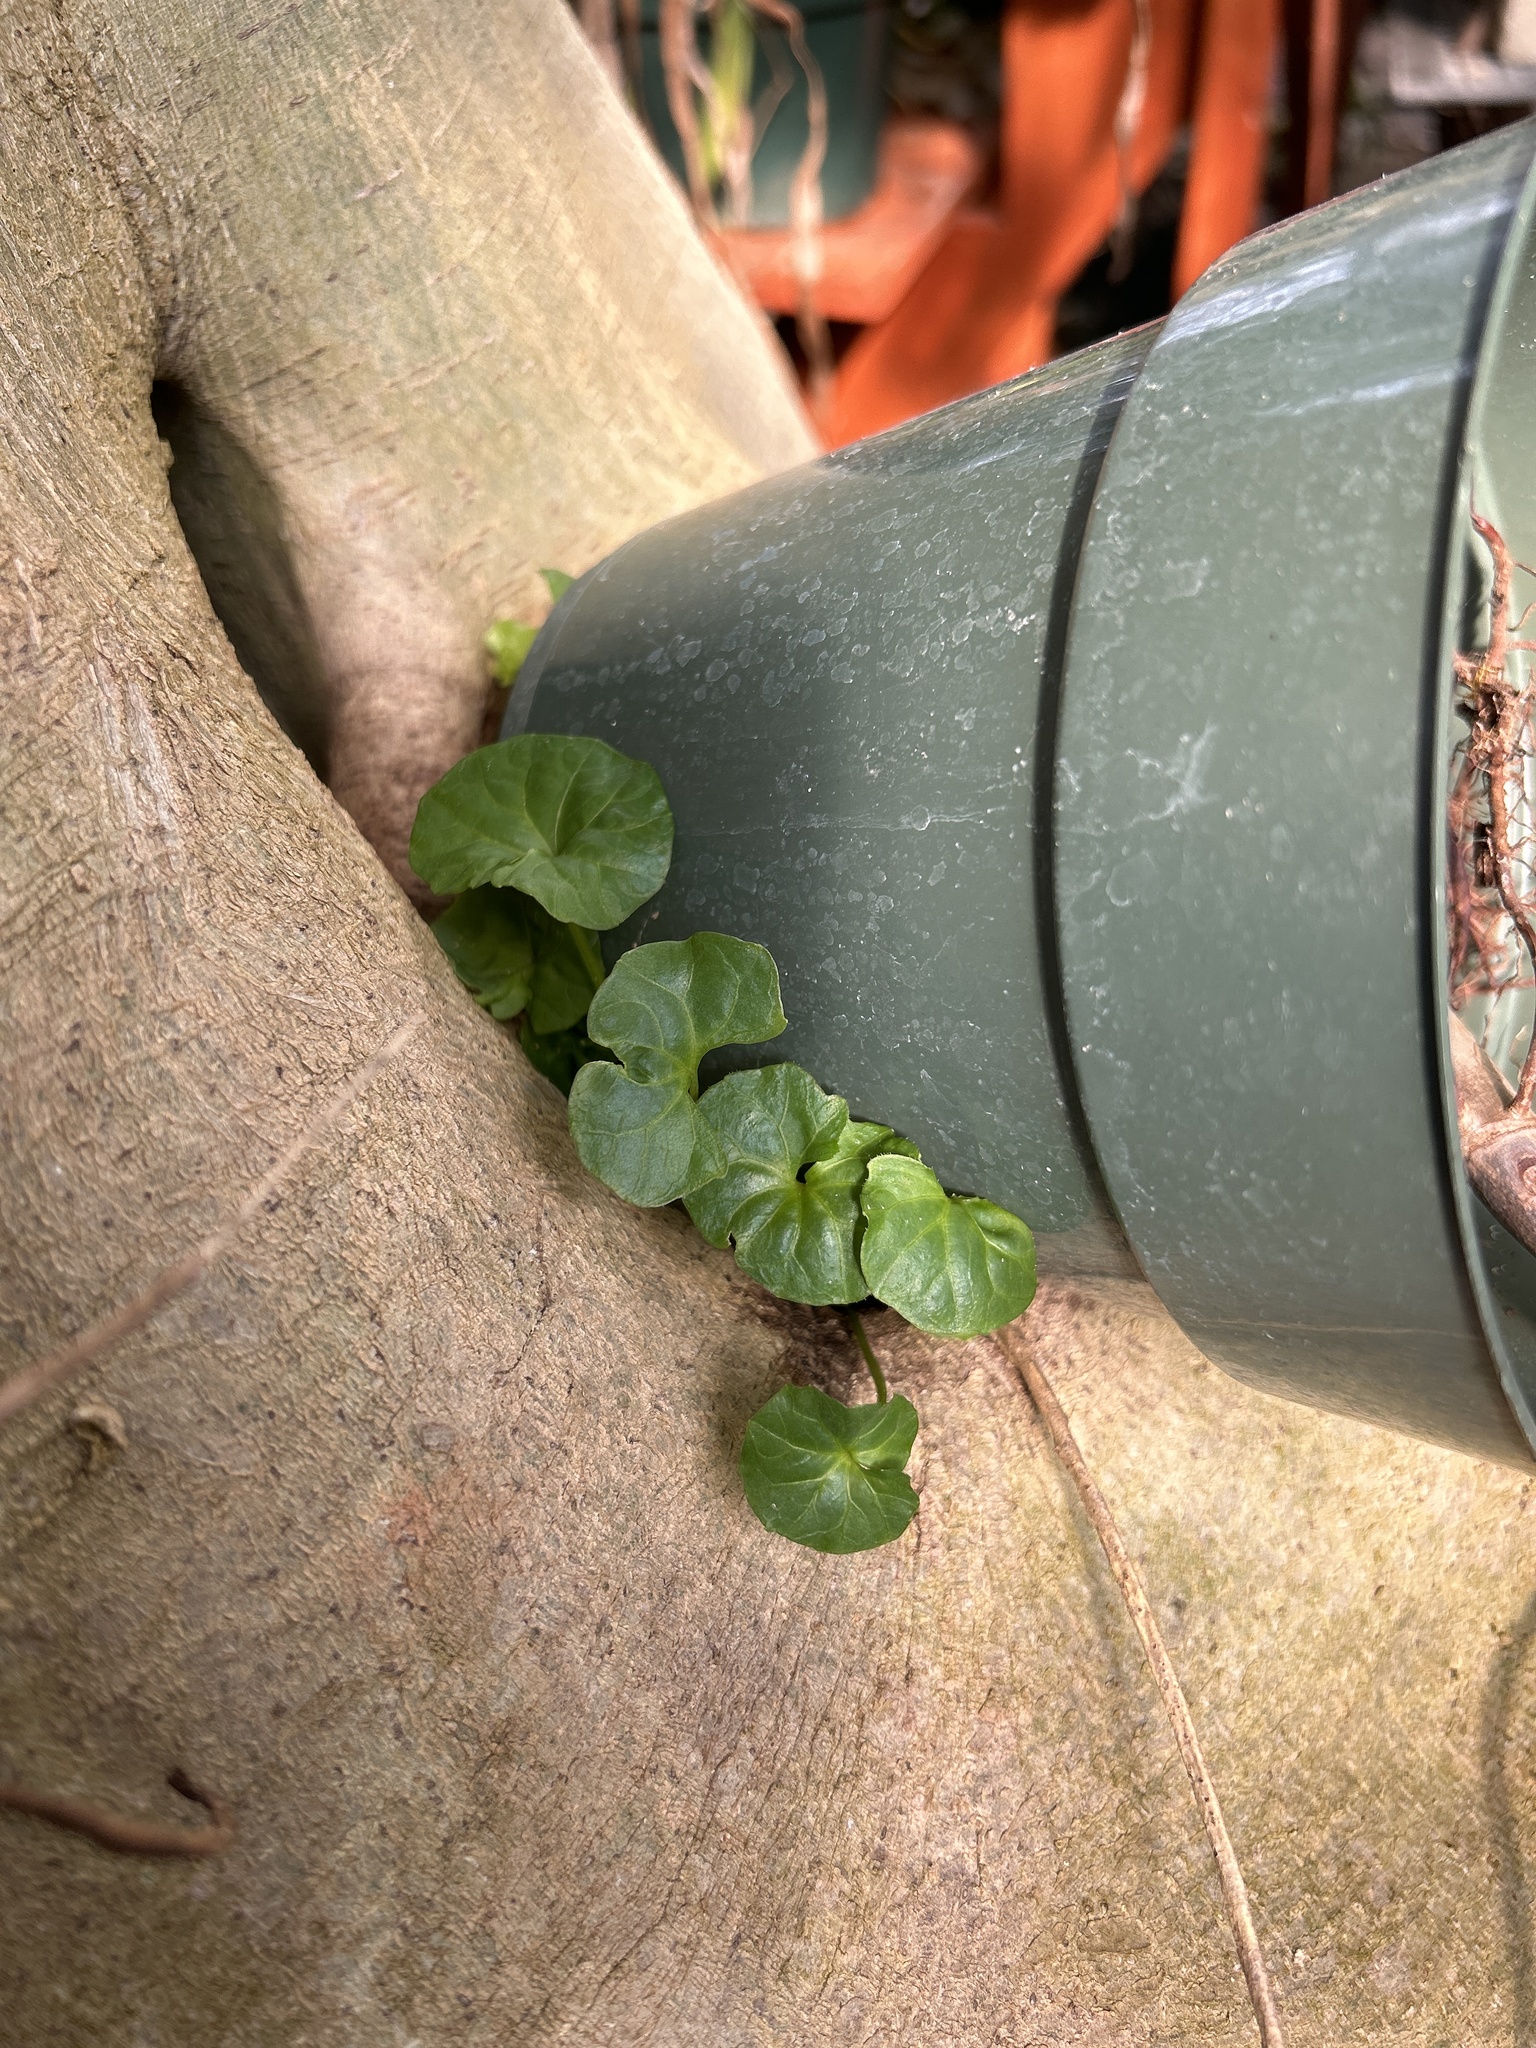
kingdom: Plantae
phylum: Tracheophyta
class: Magnoliopsida
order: Malpighiales
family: Violaceae
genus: Viola
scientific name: Viola
